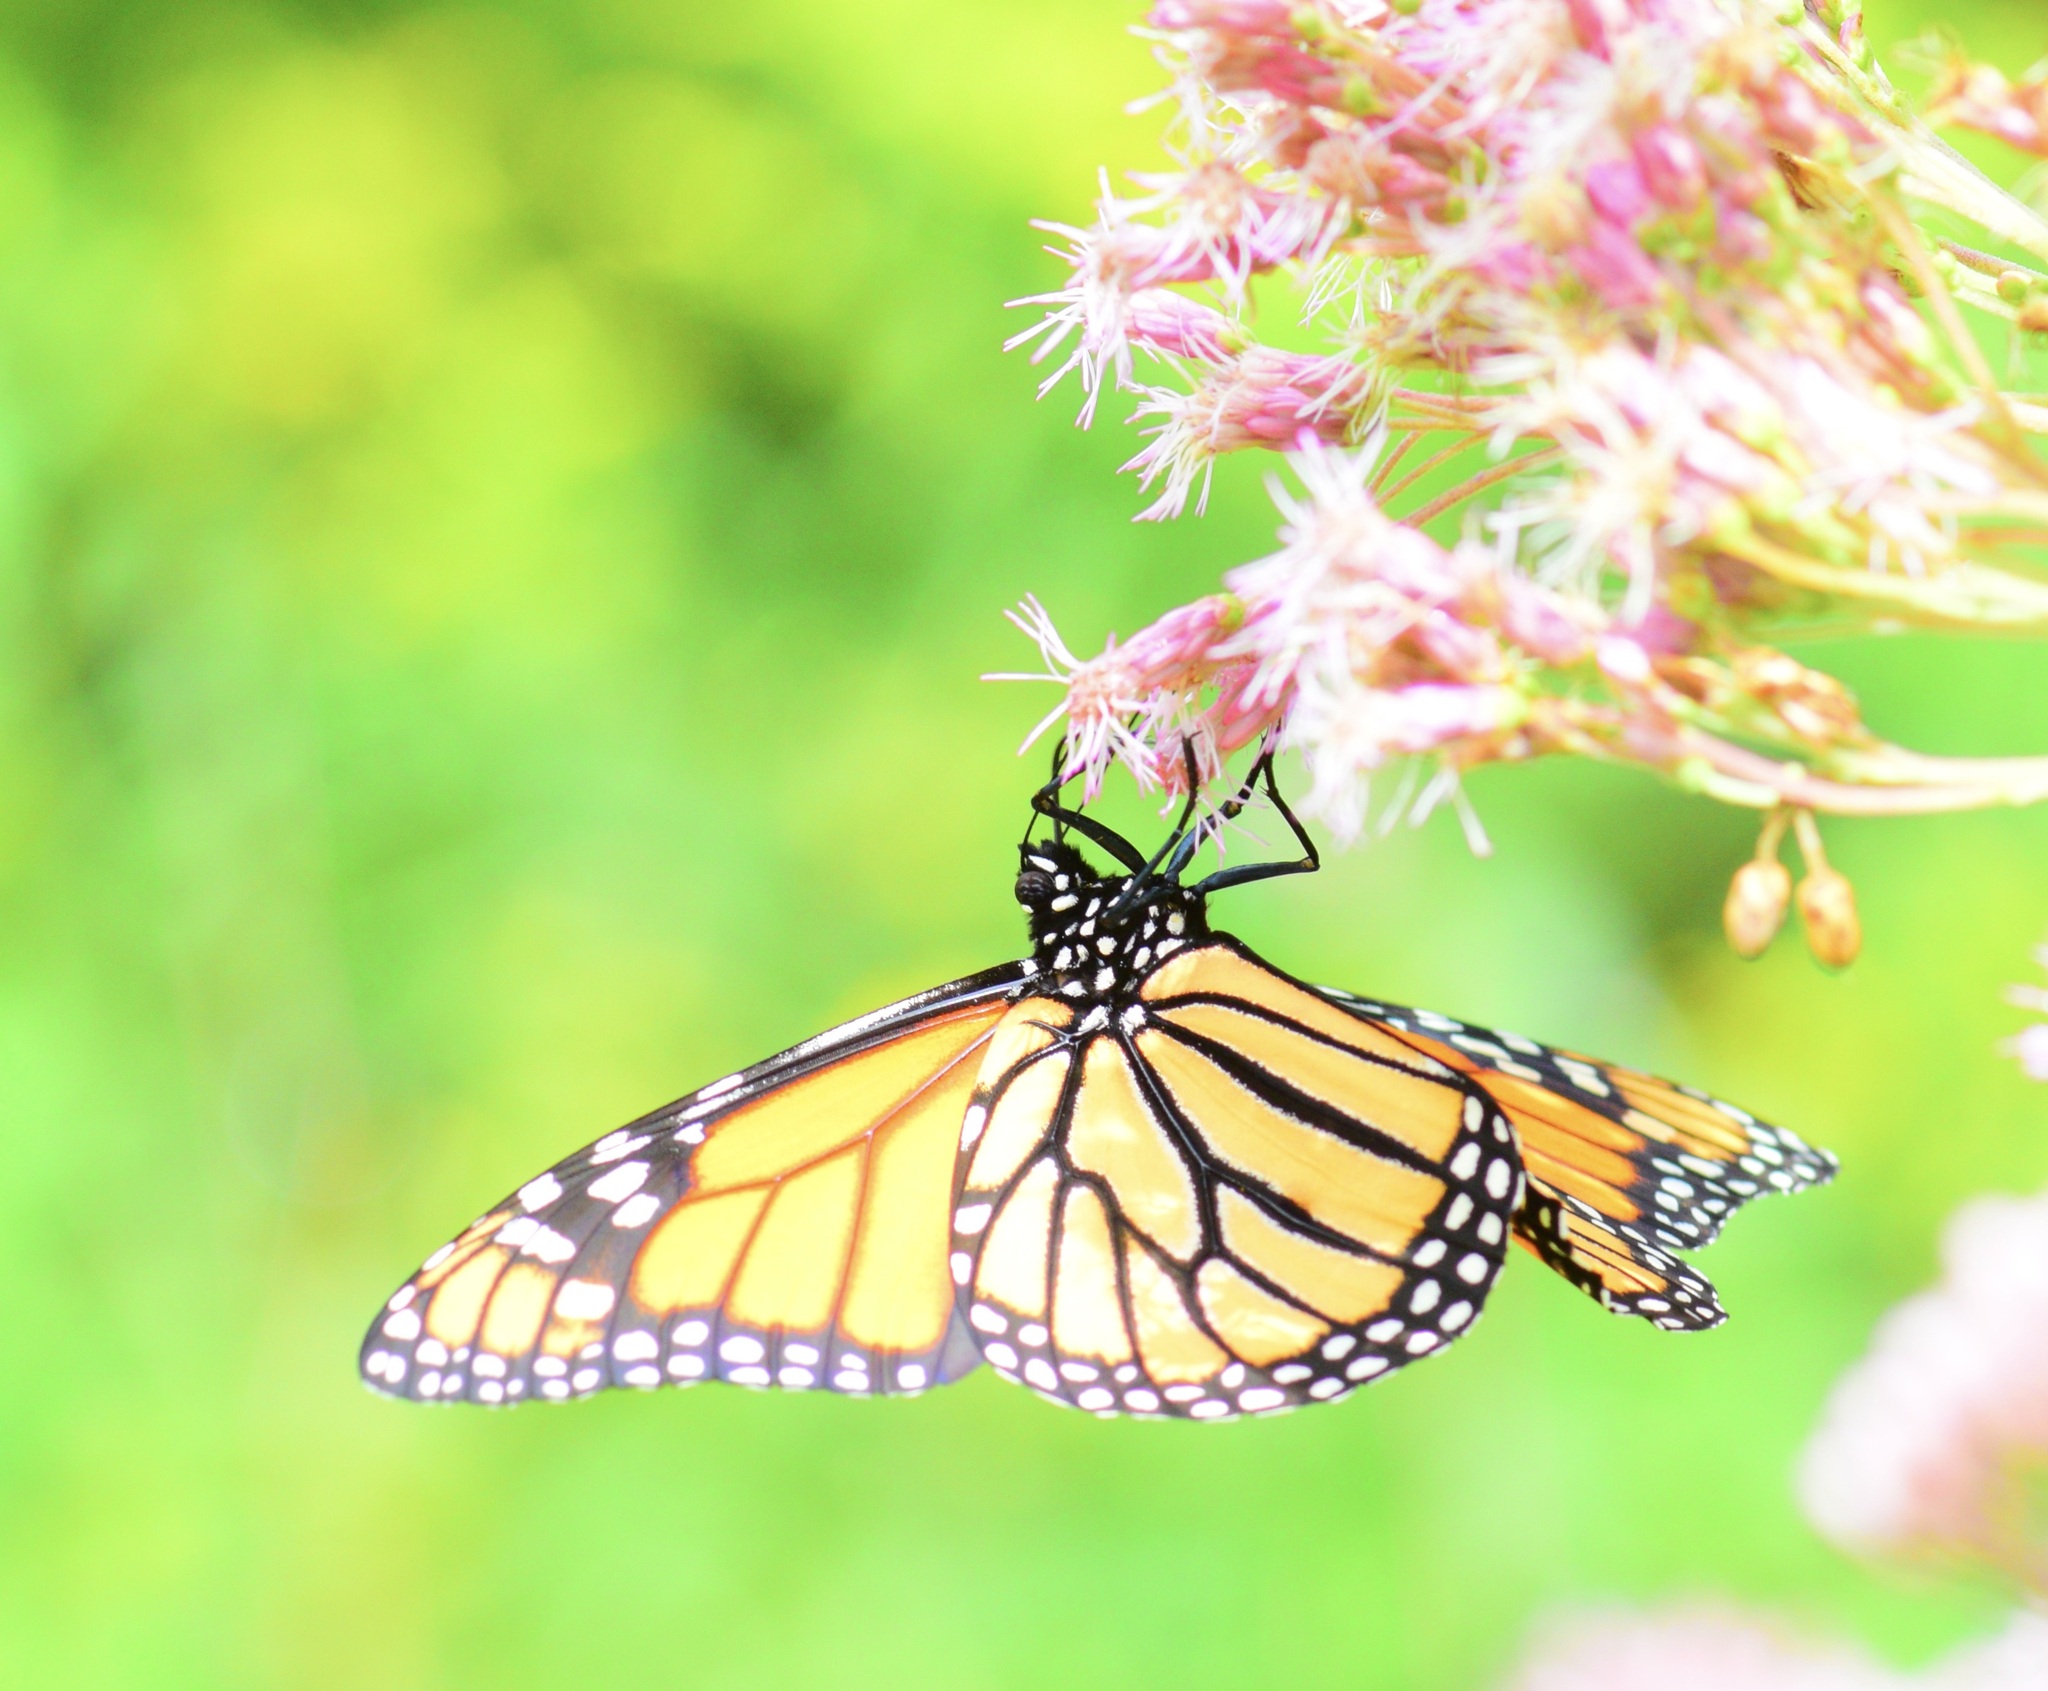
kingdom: Animalia
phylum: Arthropoda
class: Insecta
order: Lepidoptera
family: Nymphalidae
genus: Danaus
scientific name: Danaus plexippus
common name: Monarch
